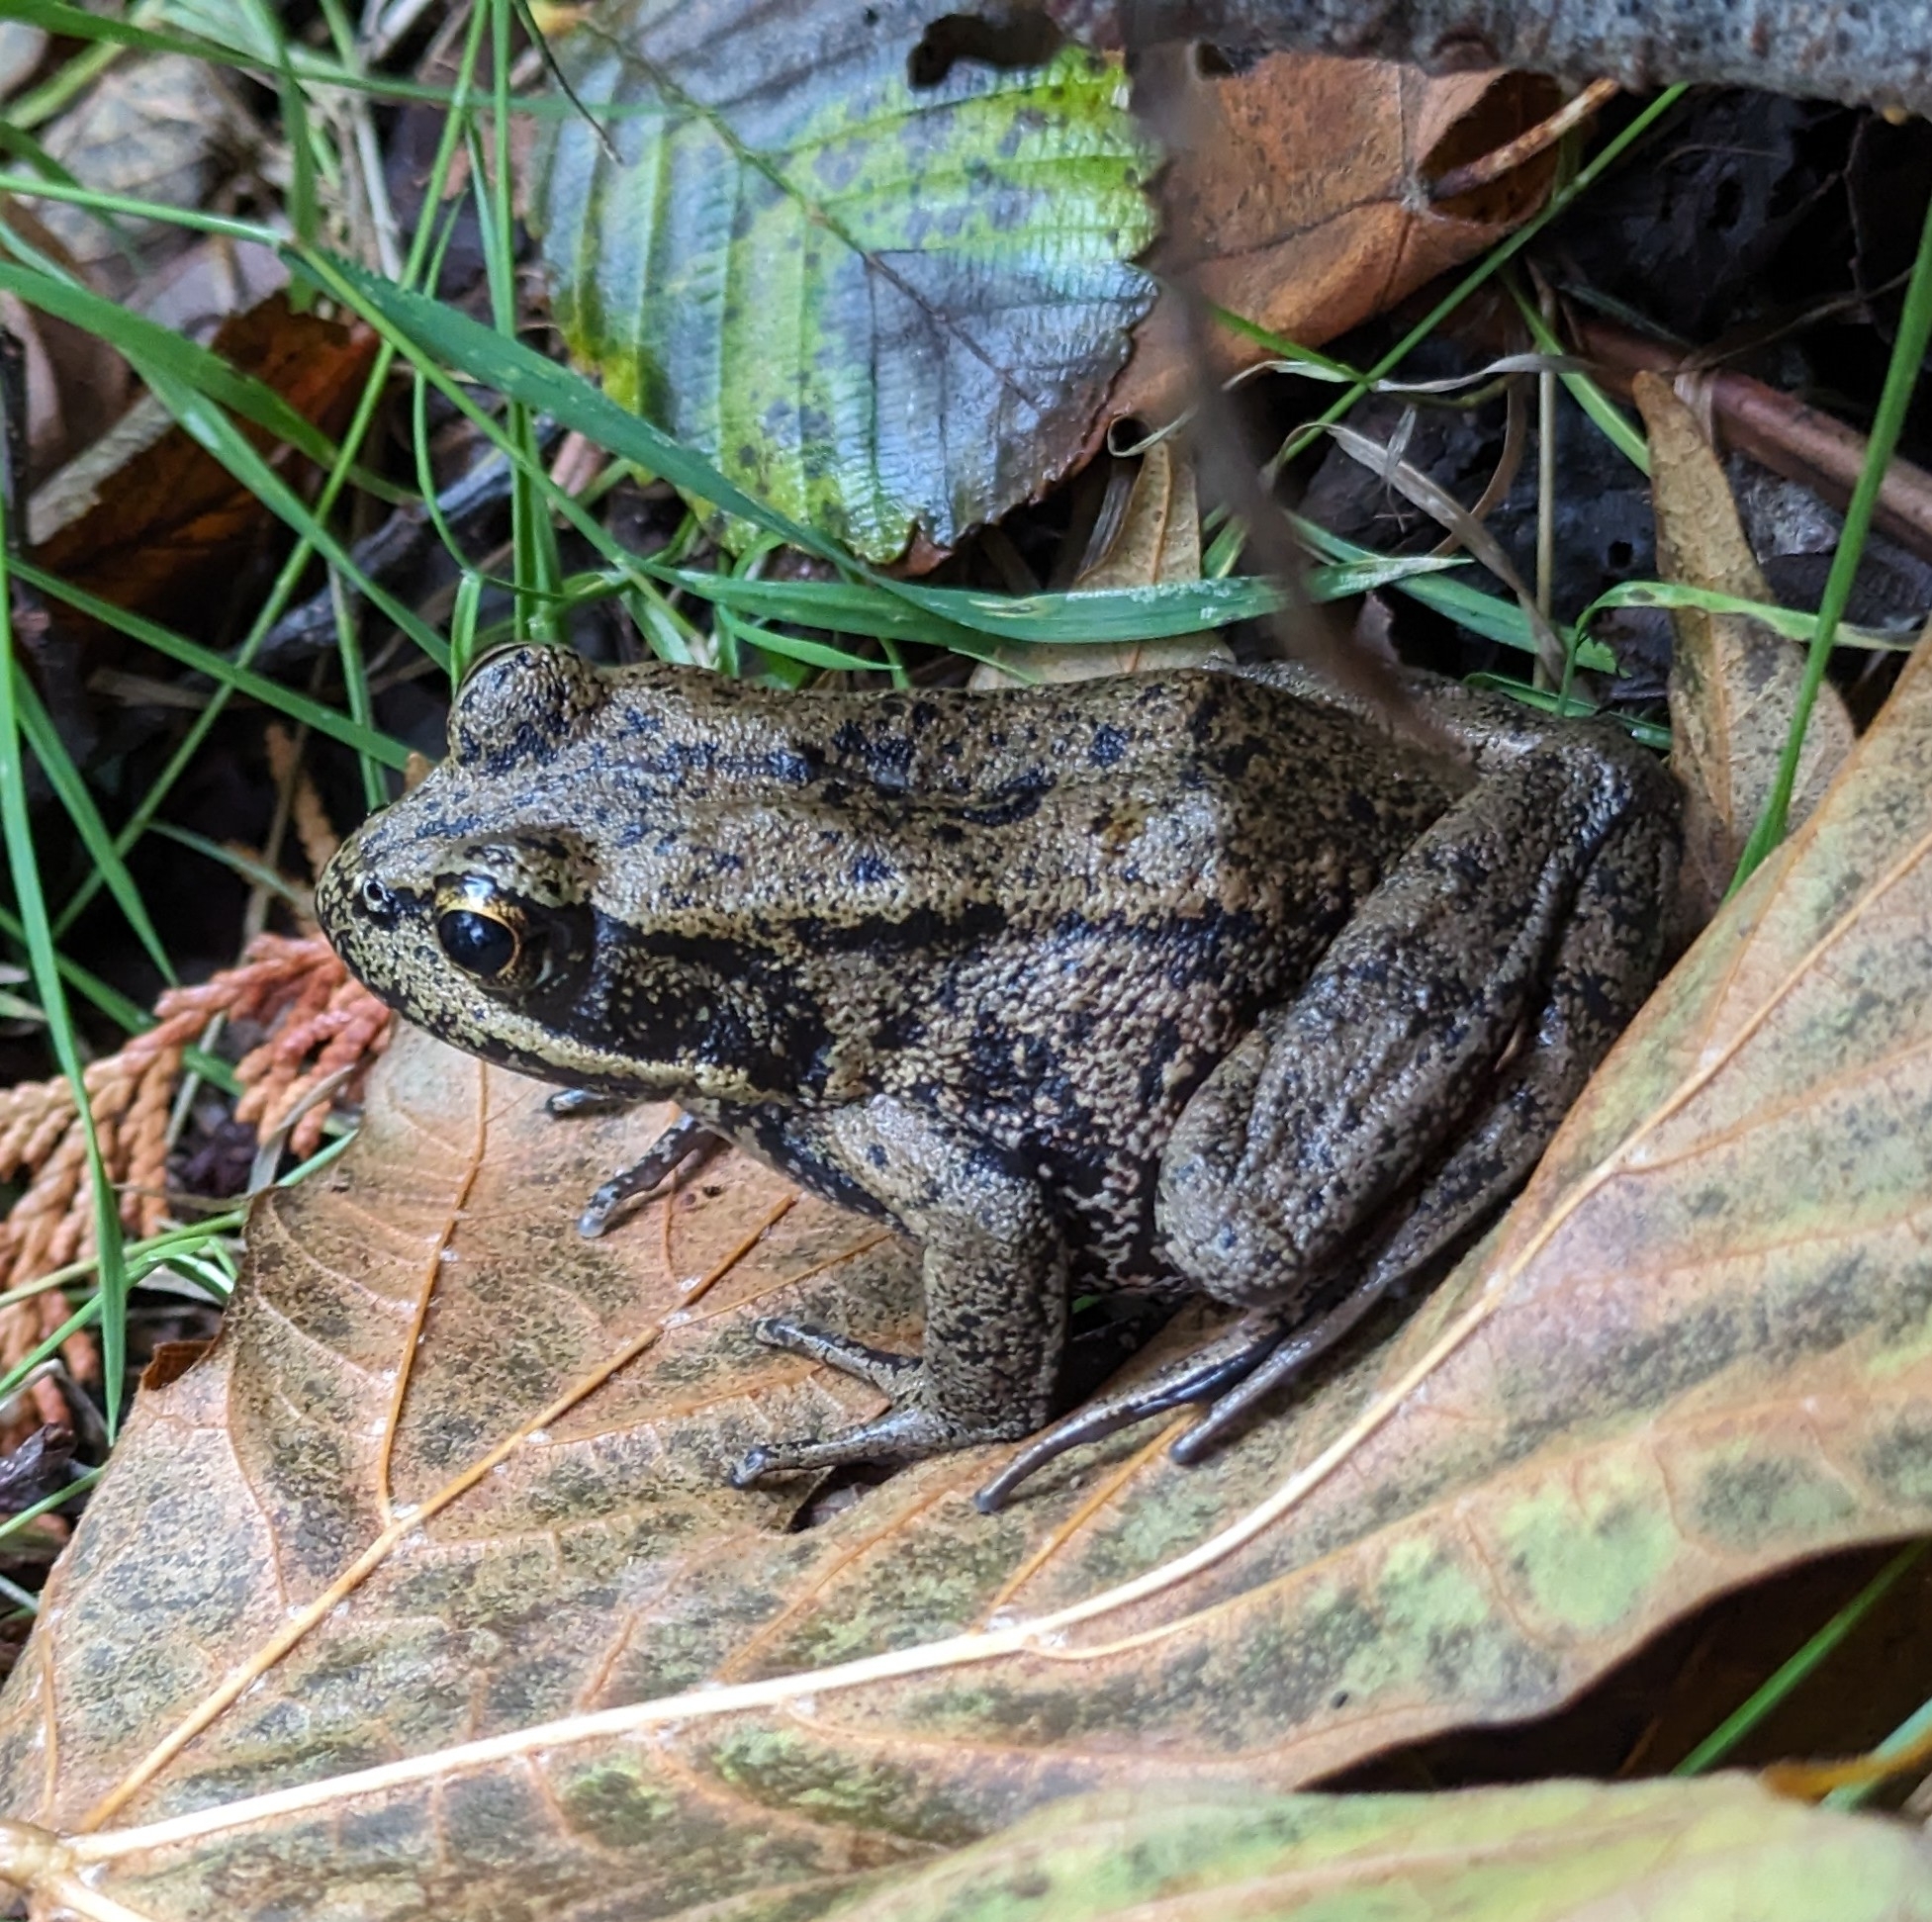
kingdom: Animalia
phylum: Chordata
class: Amphibia
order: Anura
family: Ranidae
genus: Rana
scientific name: Rana aurora
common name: Red-legged frog
